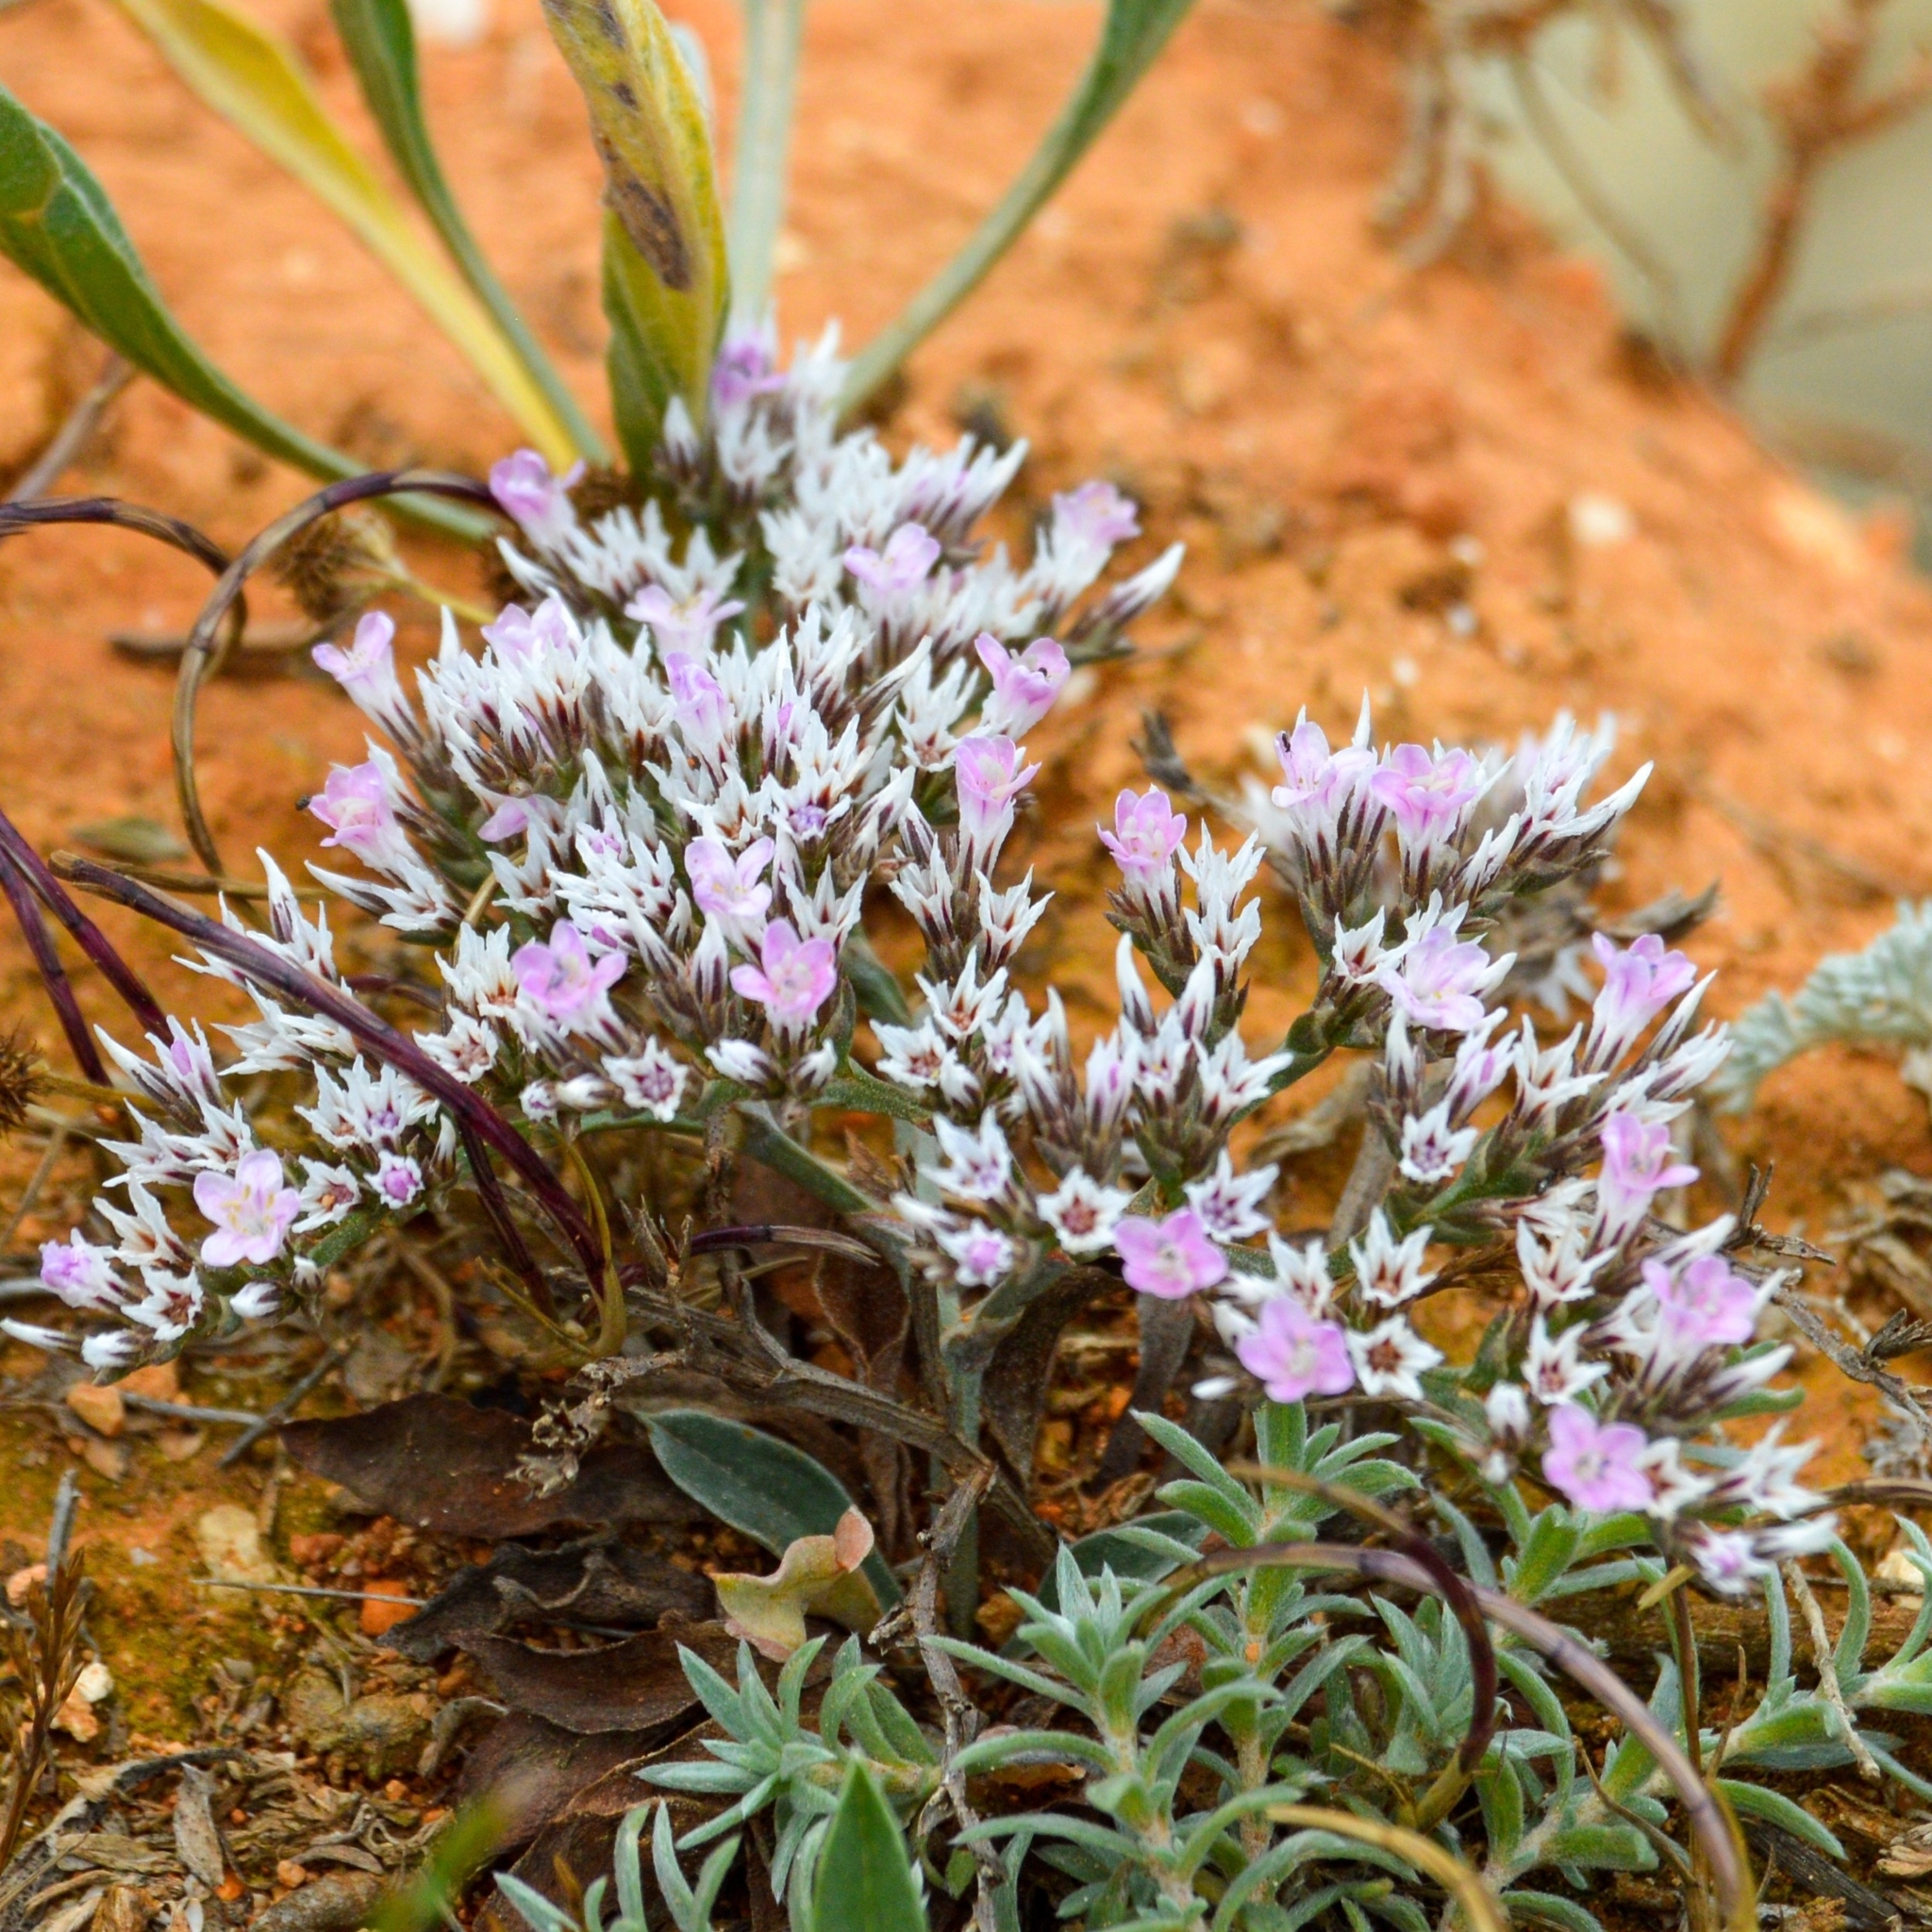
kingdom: Plantae
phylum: Tracheophyta
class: Magnoliopsida
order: Caryophyllales
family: Plumbaginaceae
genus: Goniolimon
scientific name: Goniolimon tataricum
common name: Statice
